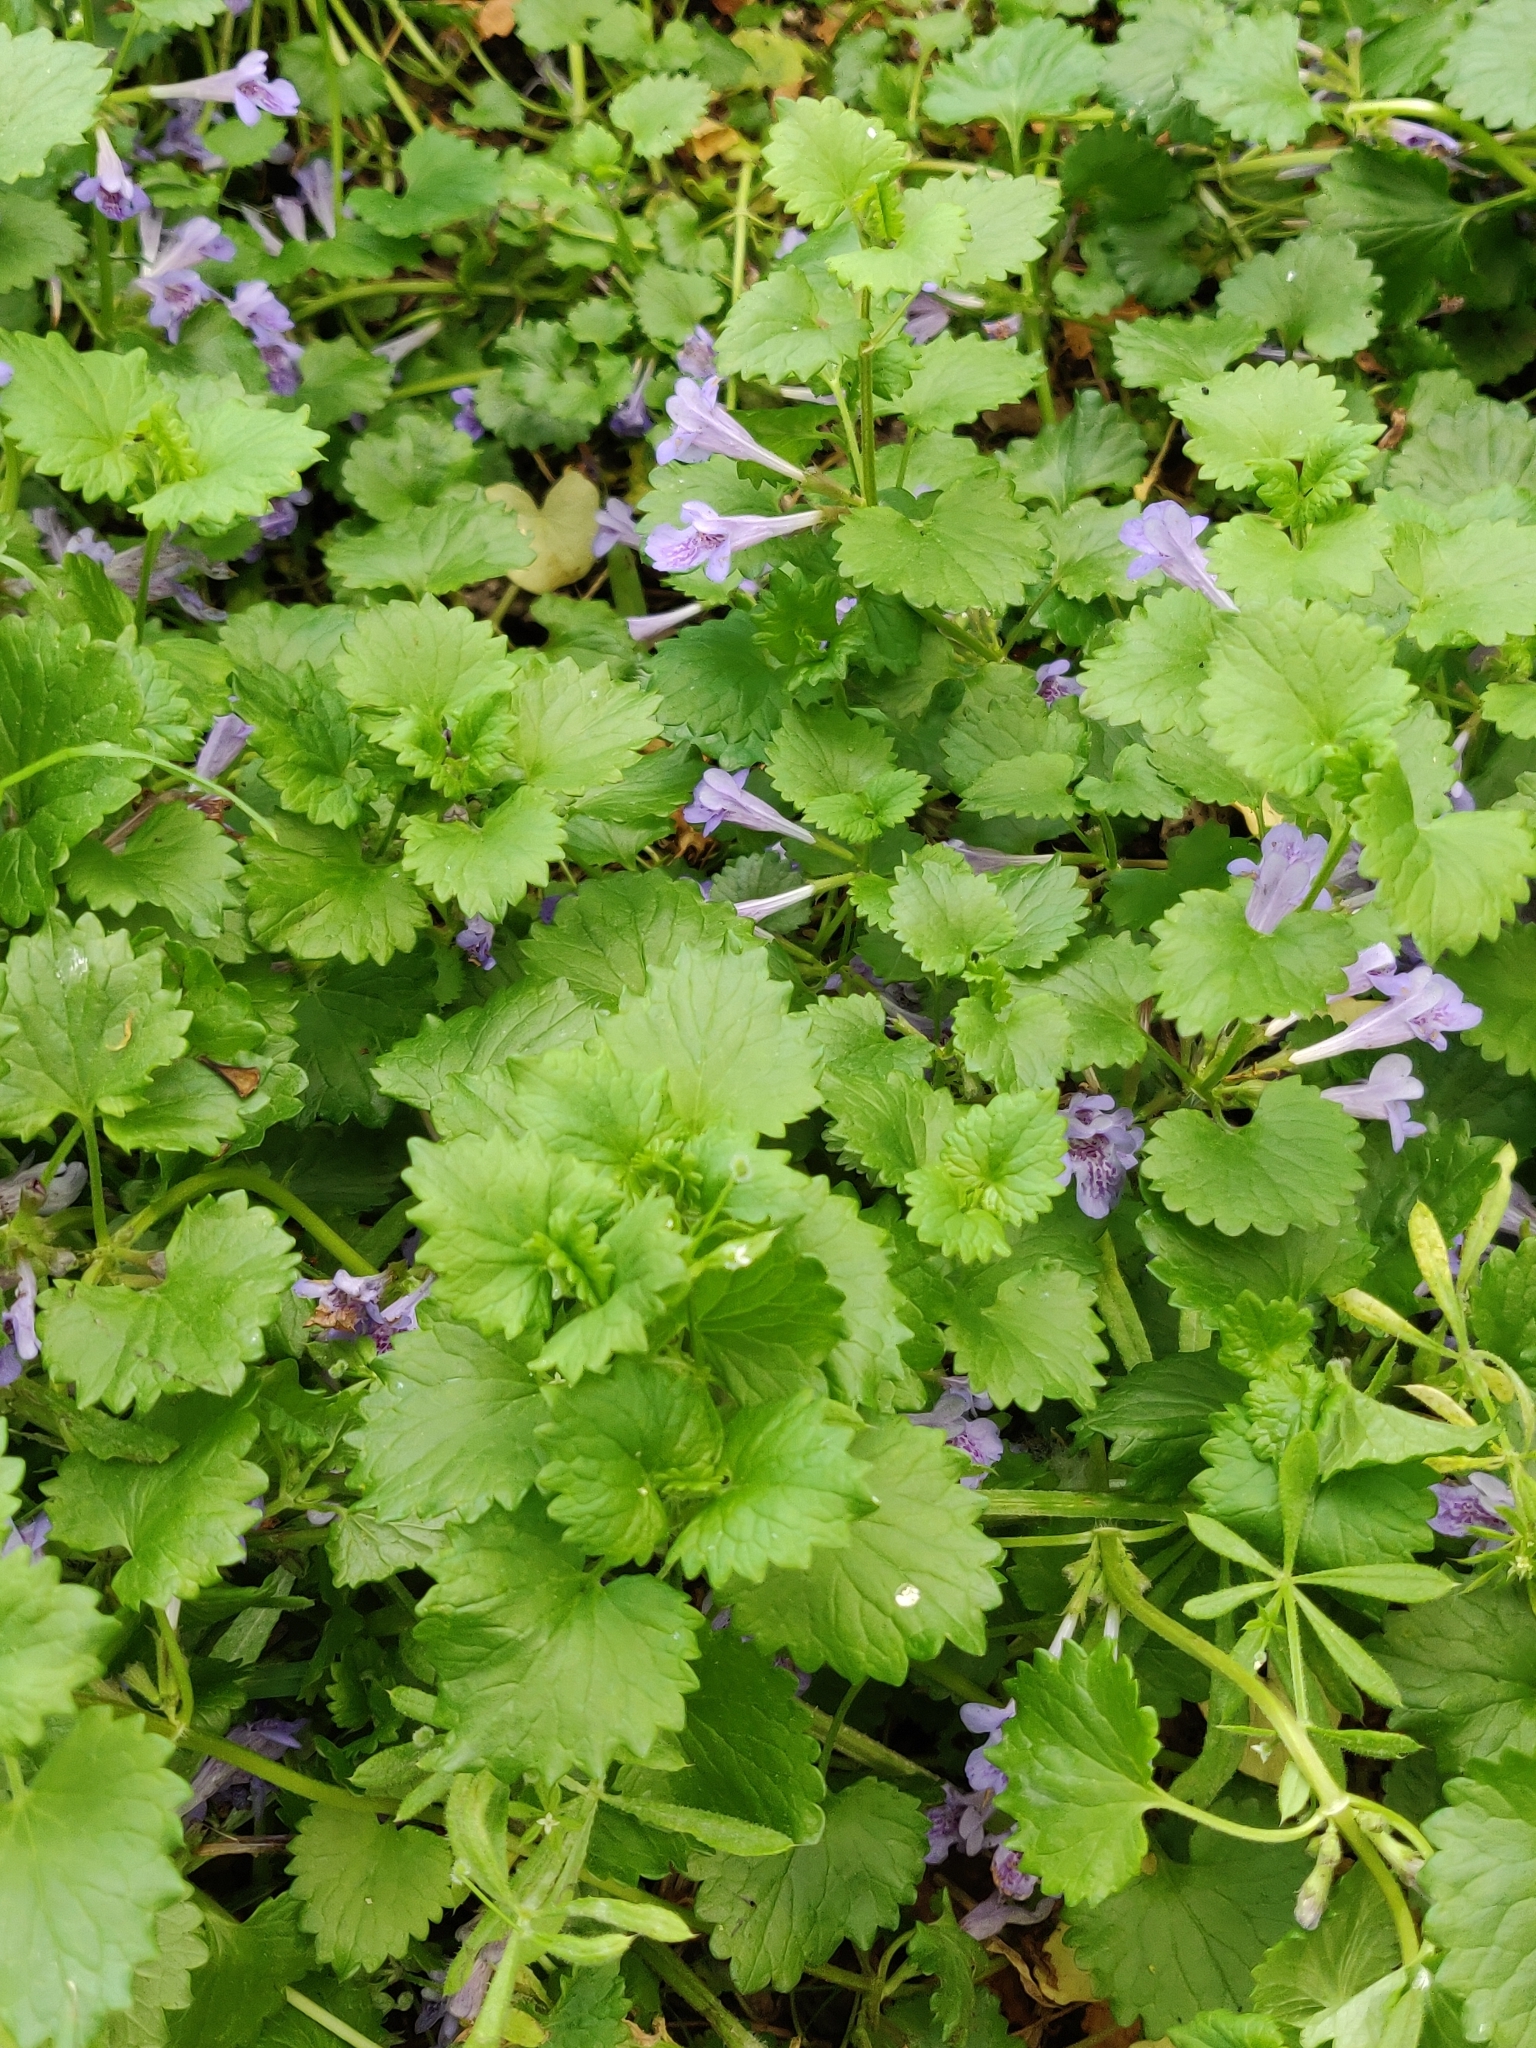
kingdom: Plantae
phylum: Tracheophyta
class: Magnoliopsida
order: Lamiales
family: Lamiaceae
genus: Glechoma
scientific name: Glechoma hederacea
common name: Ground ivy
